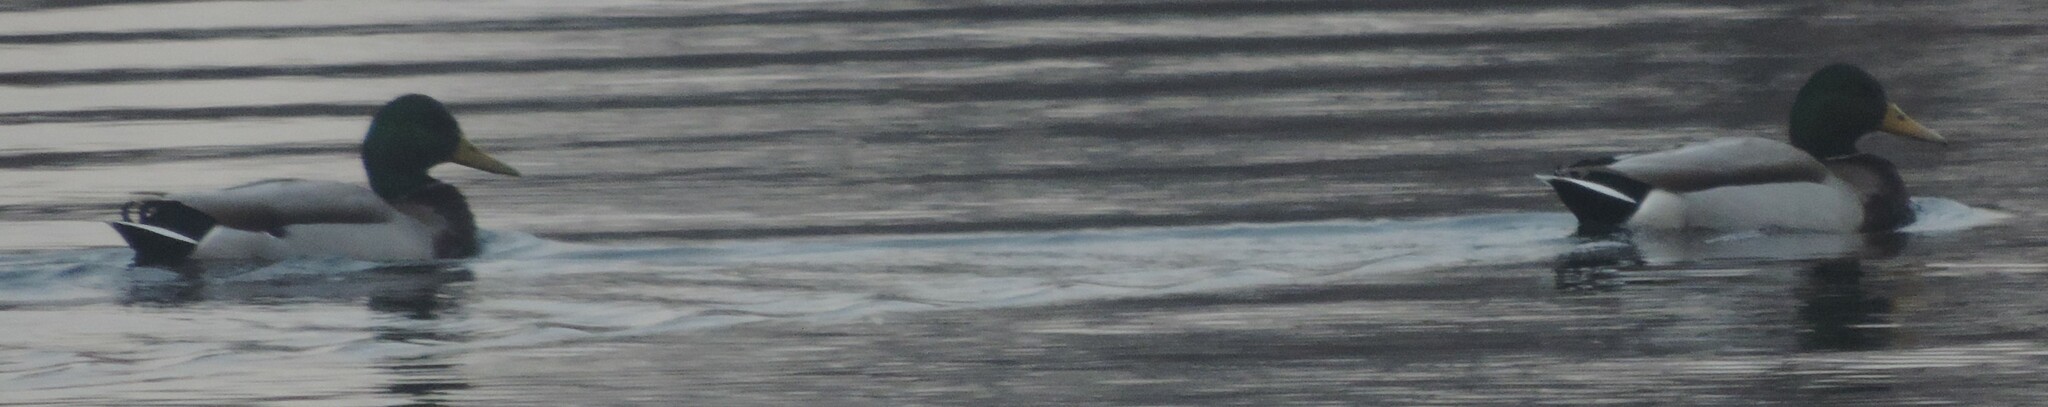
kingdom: Animalia
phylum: Chordata
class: Aves
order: Anseriformes
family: Anatidae
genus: Anas
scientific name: Anas platyrhynchos
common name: Mallard
